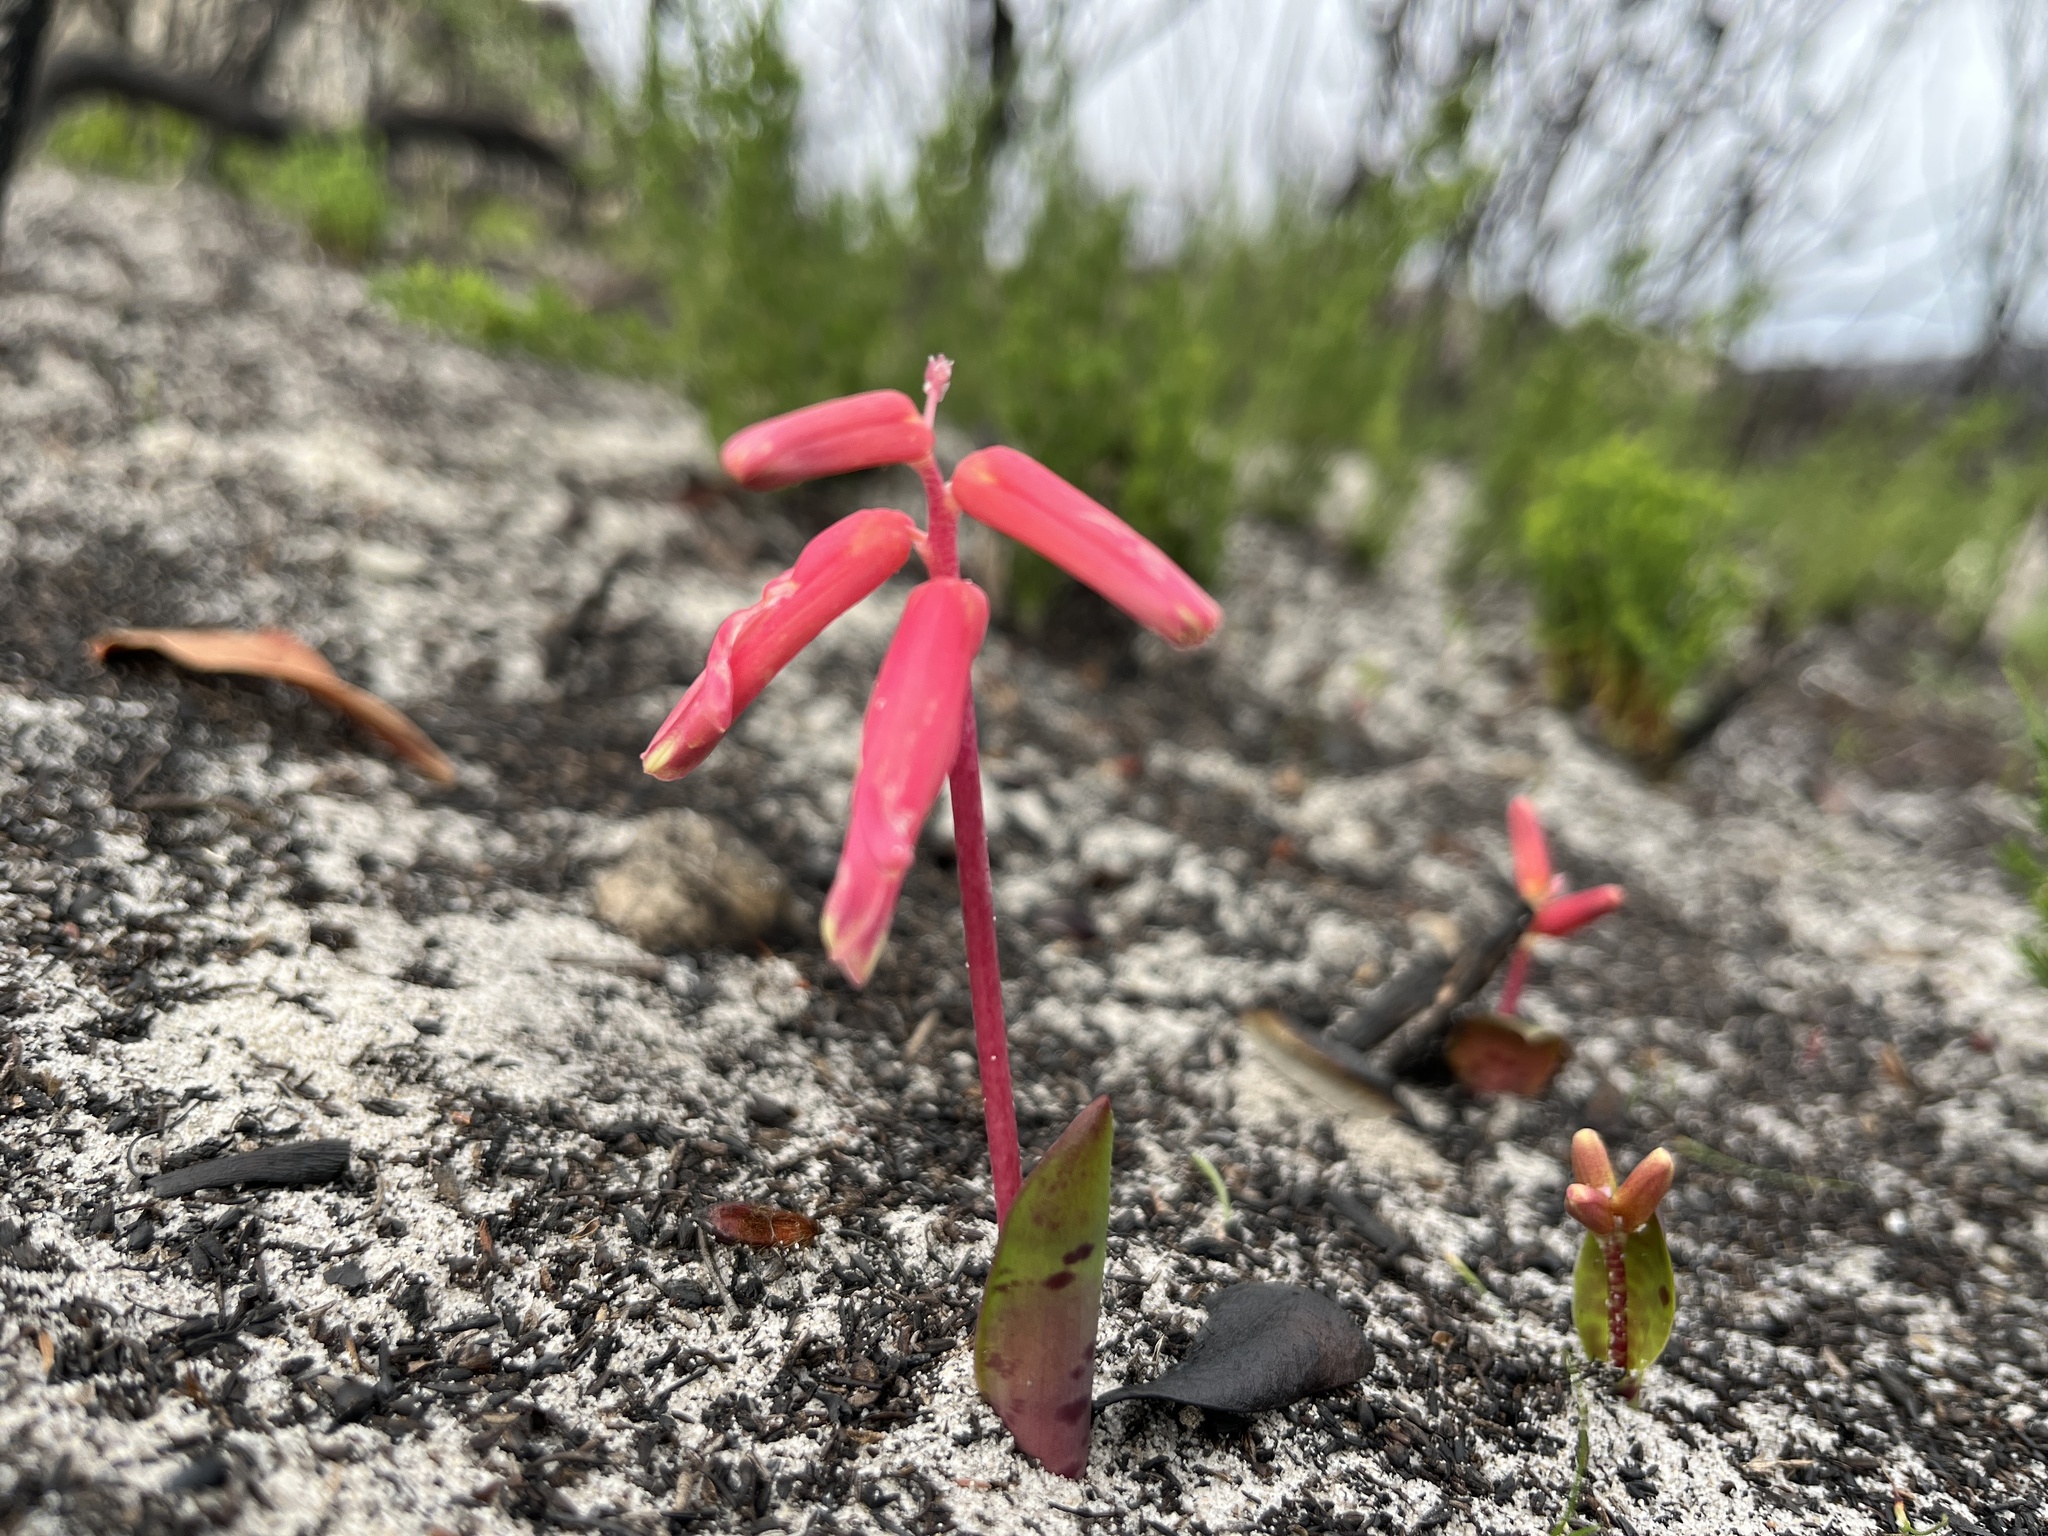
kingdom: Plantae
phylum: Tracheophyta
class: Liliopsida
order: Asparagales
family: Asparagaceae
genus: Lachenalia
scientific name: Lachenalia punctata
